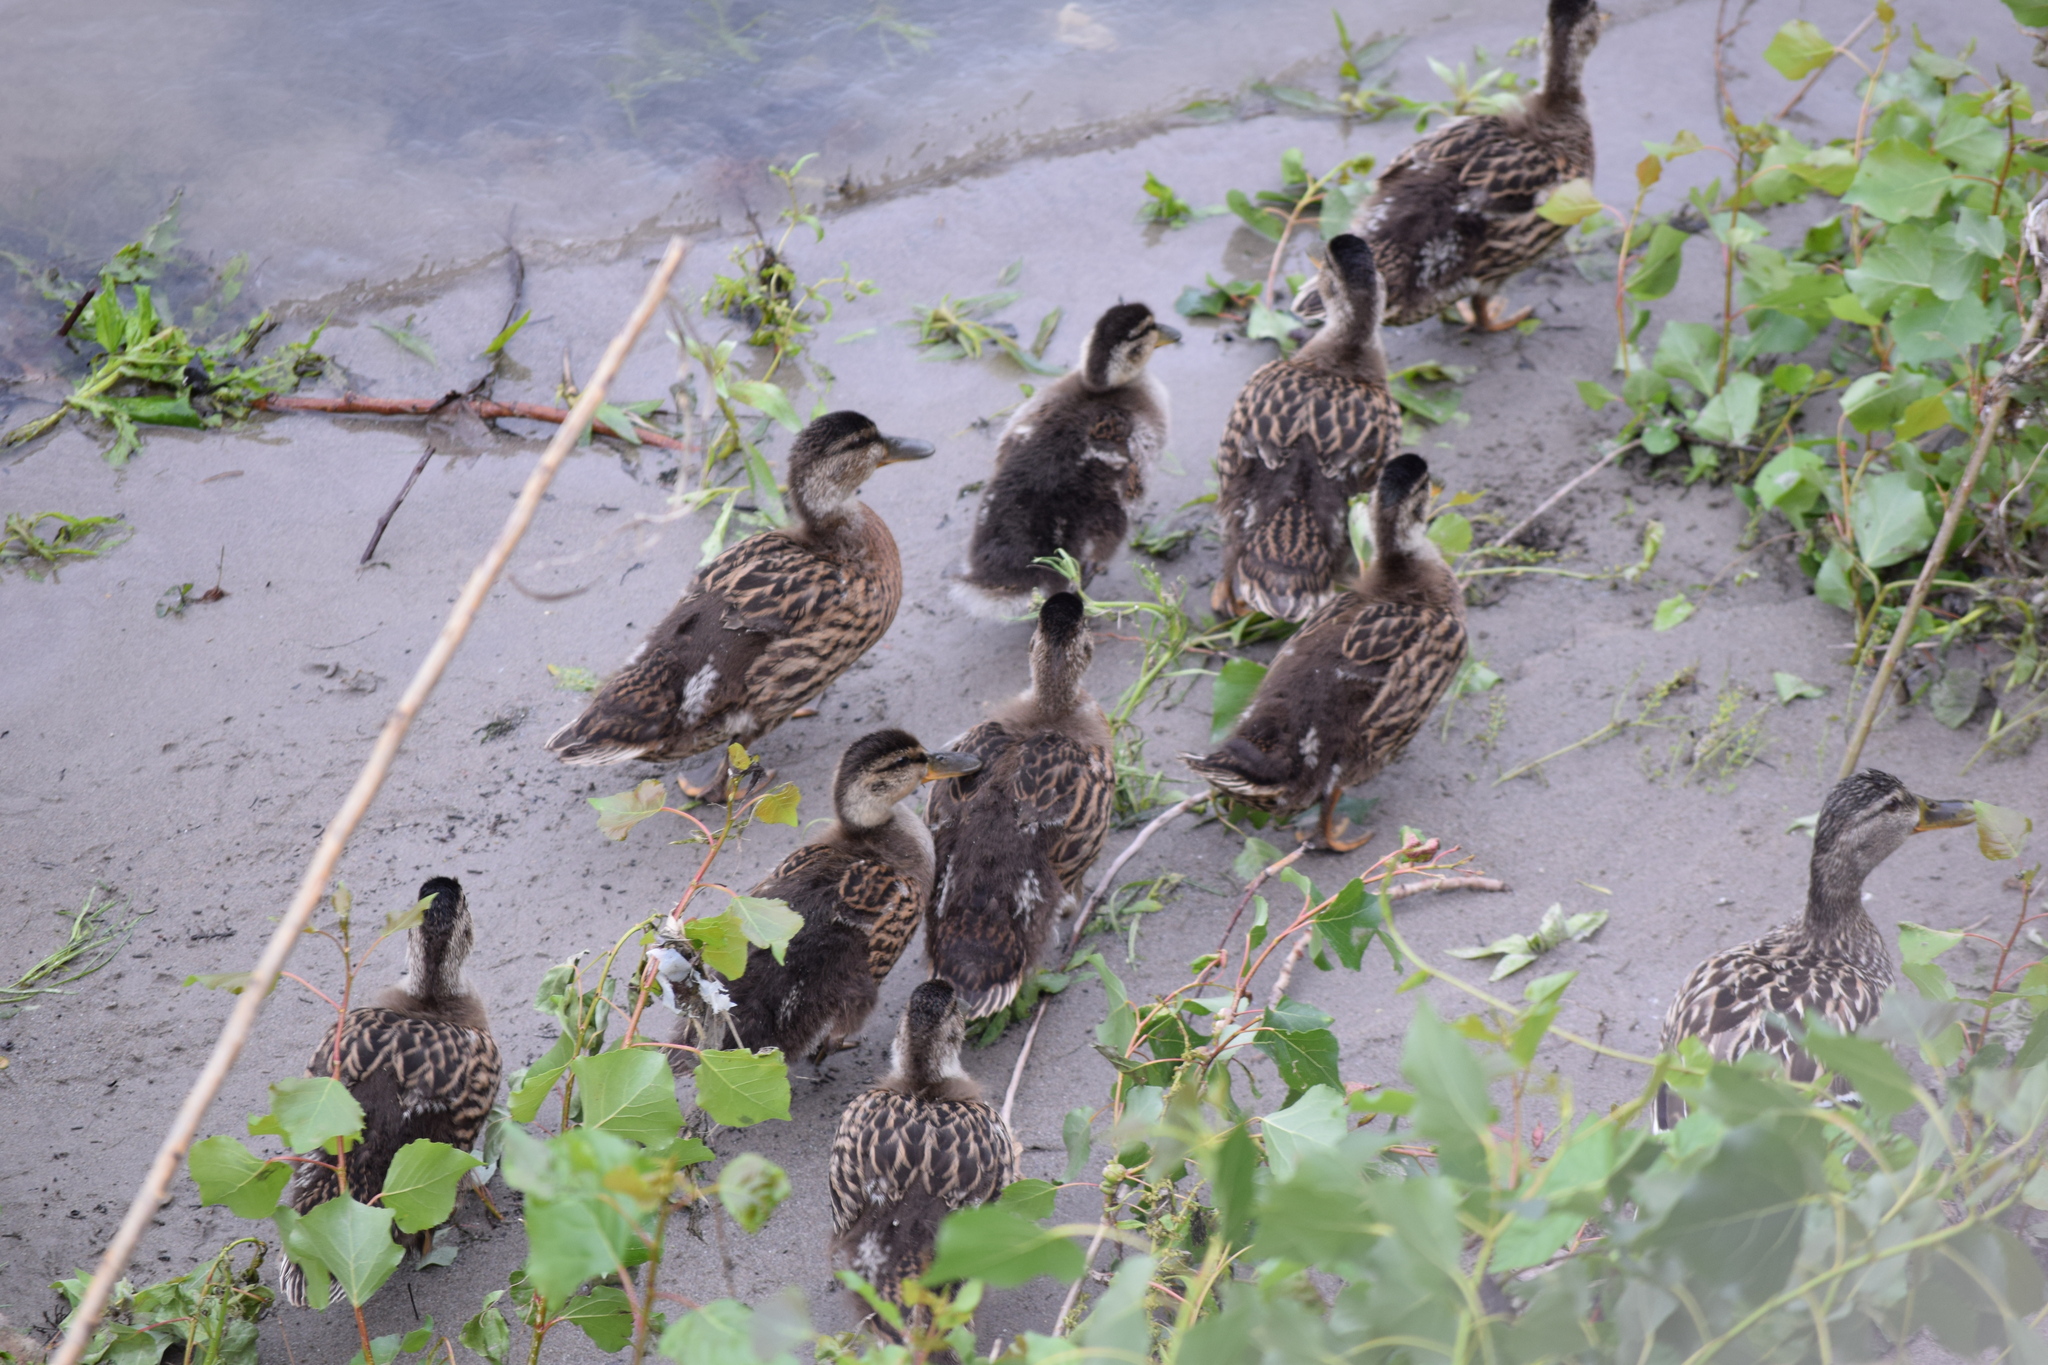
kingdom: Animalia
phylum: Chordata
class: Aves
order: Anseriformes
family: Anatidae
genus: Anas
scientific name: Anas platyrhynchos
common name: Mallard
